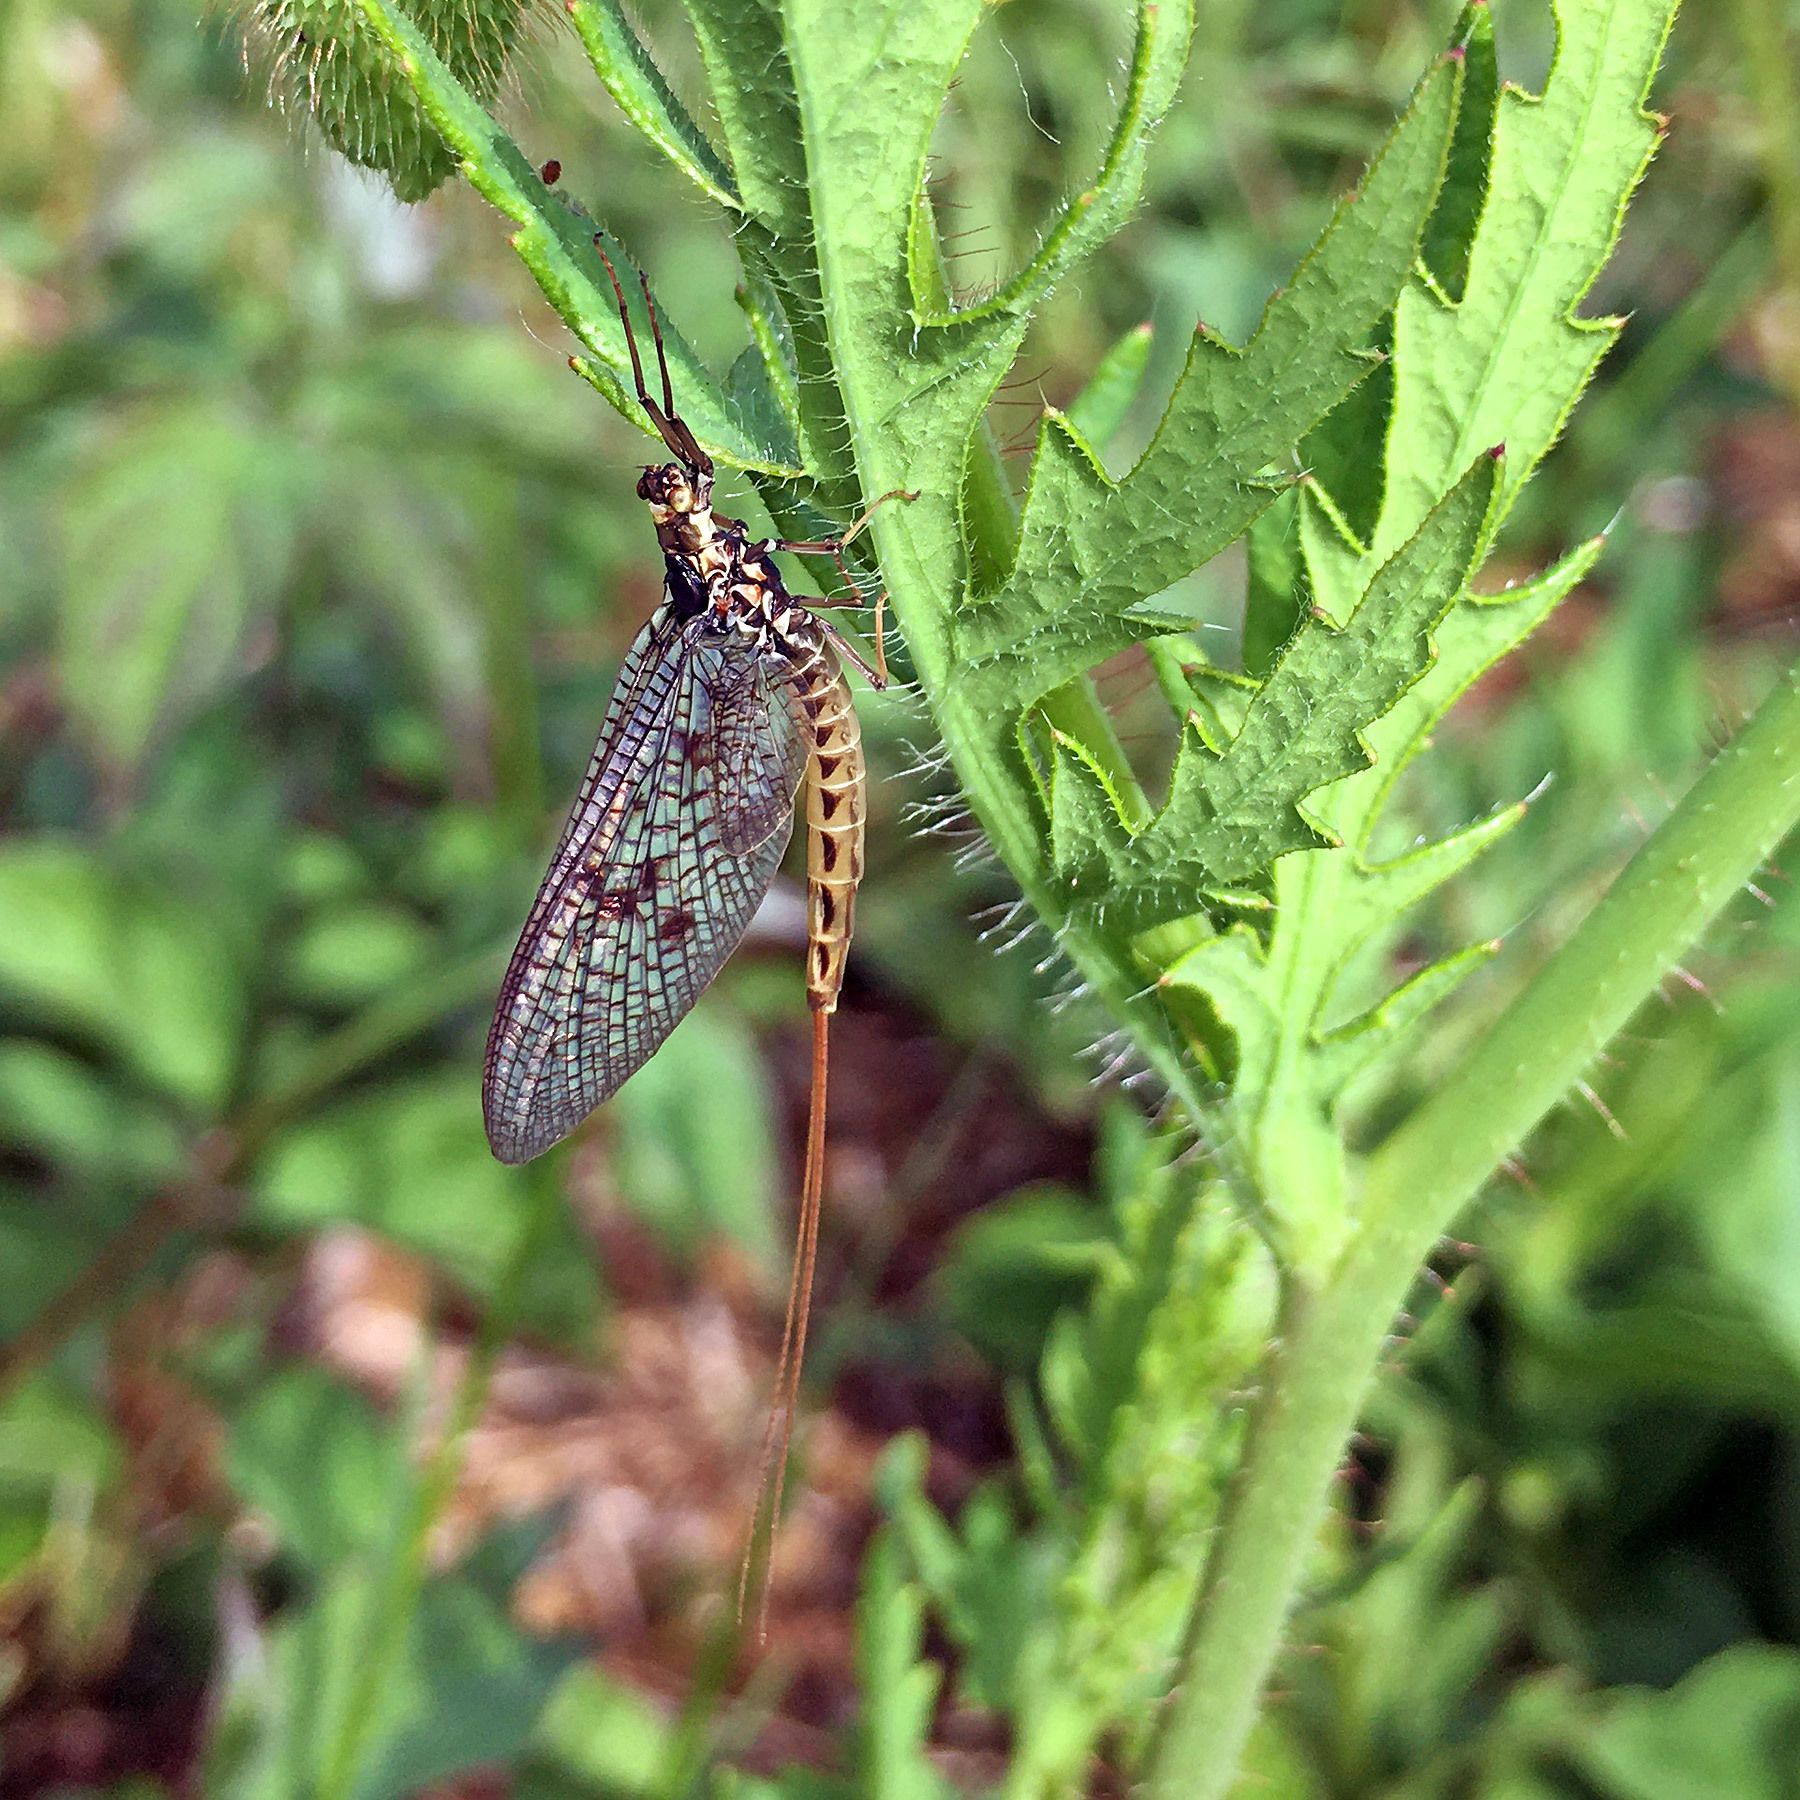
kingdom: Animalia
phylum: Arthropoda
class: Insecta
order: Ephemeroptera
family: Ephemeridae
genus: Ephemera
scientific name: Ephemera vulgata
